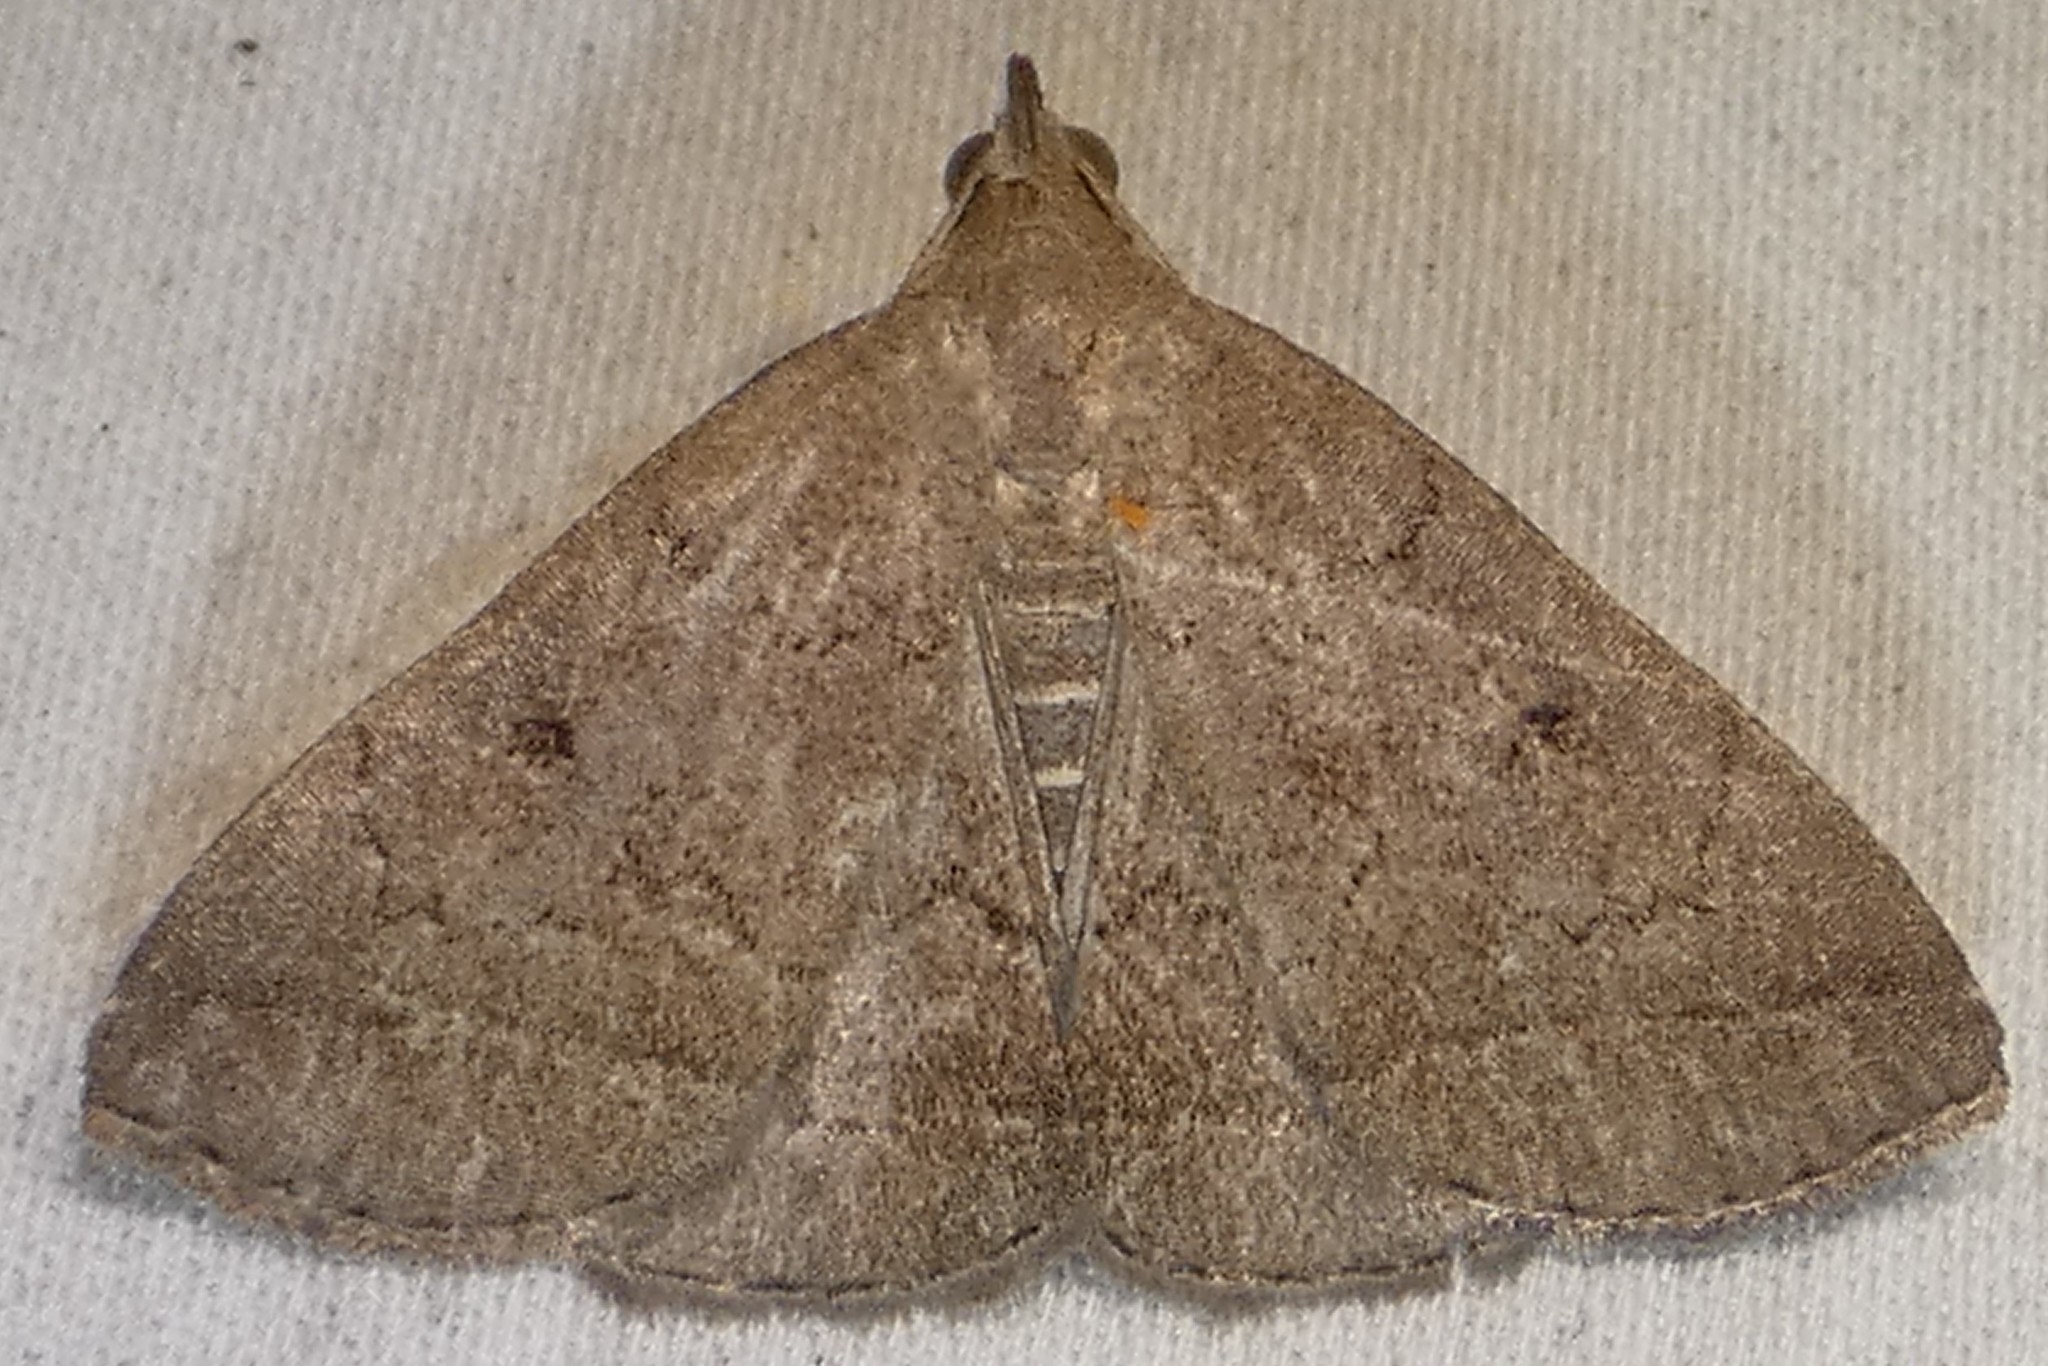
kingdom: Animalia
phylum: Arthropoda
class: Insecta
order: Lepidoptera
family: Erebidae
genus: Zanclognatha
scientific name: Zanclognatha jacchusalis
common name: Yellowish zanclognatha
